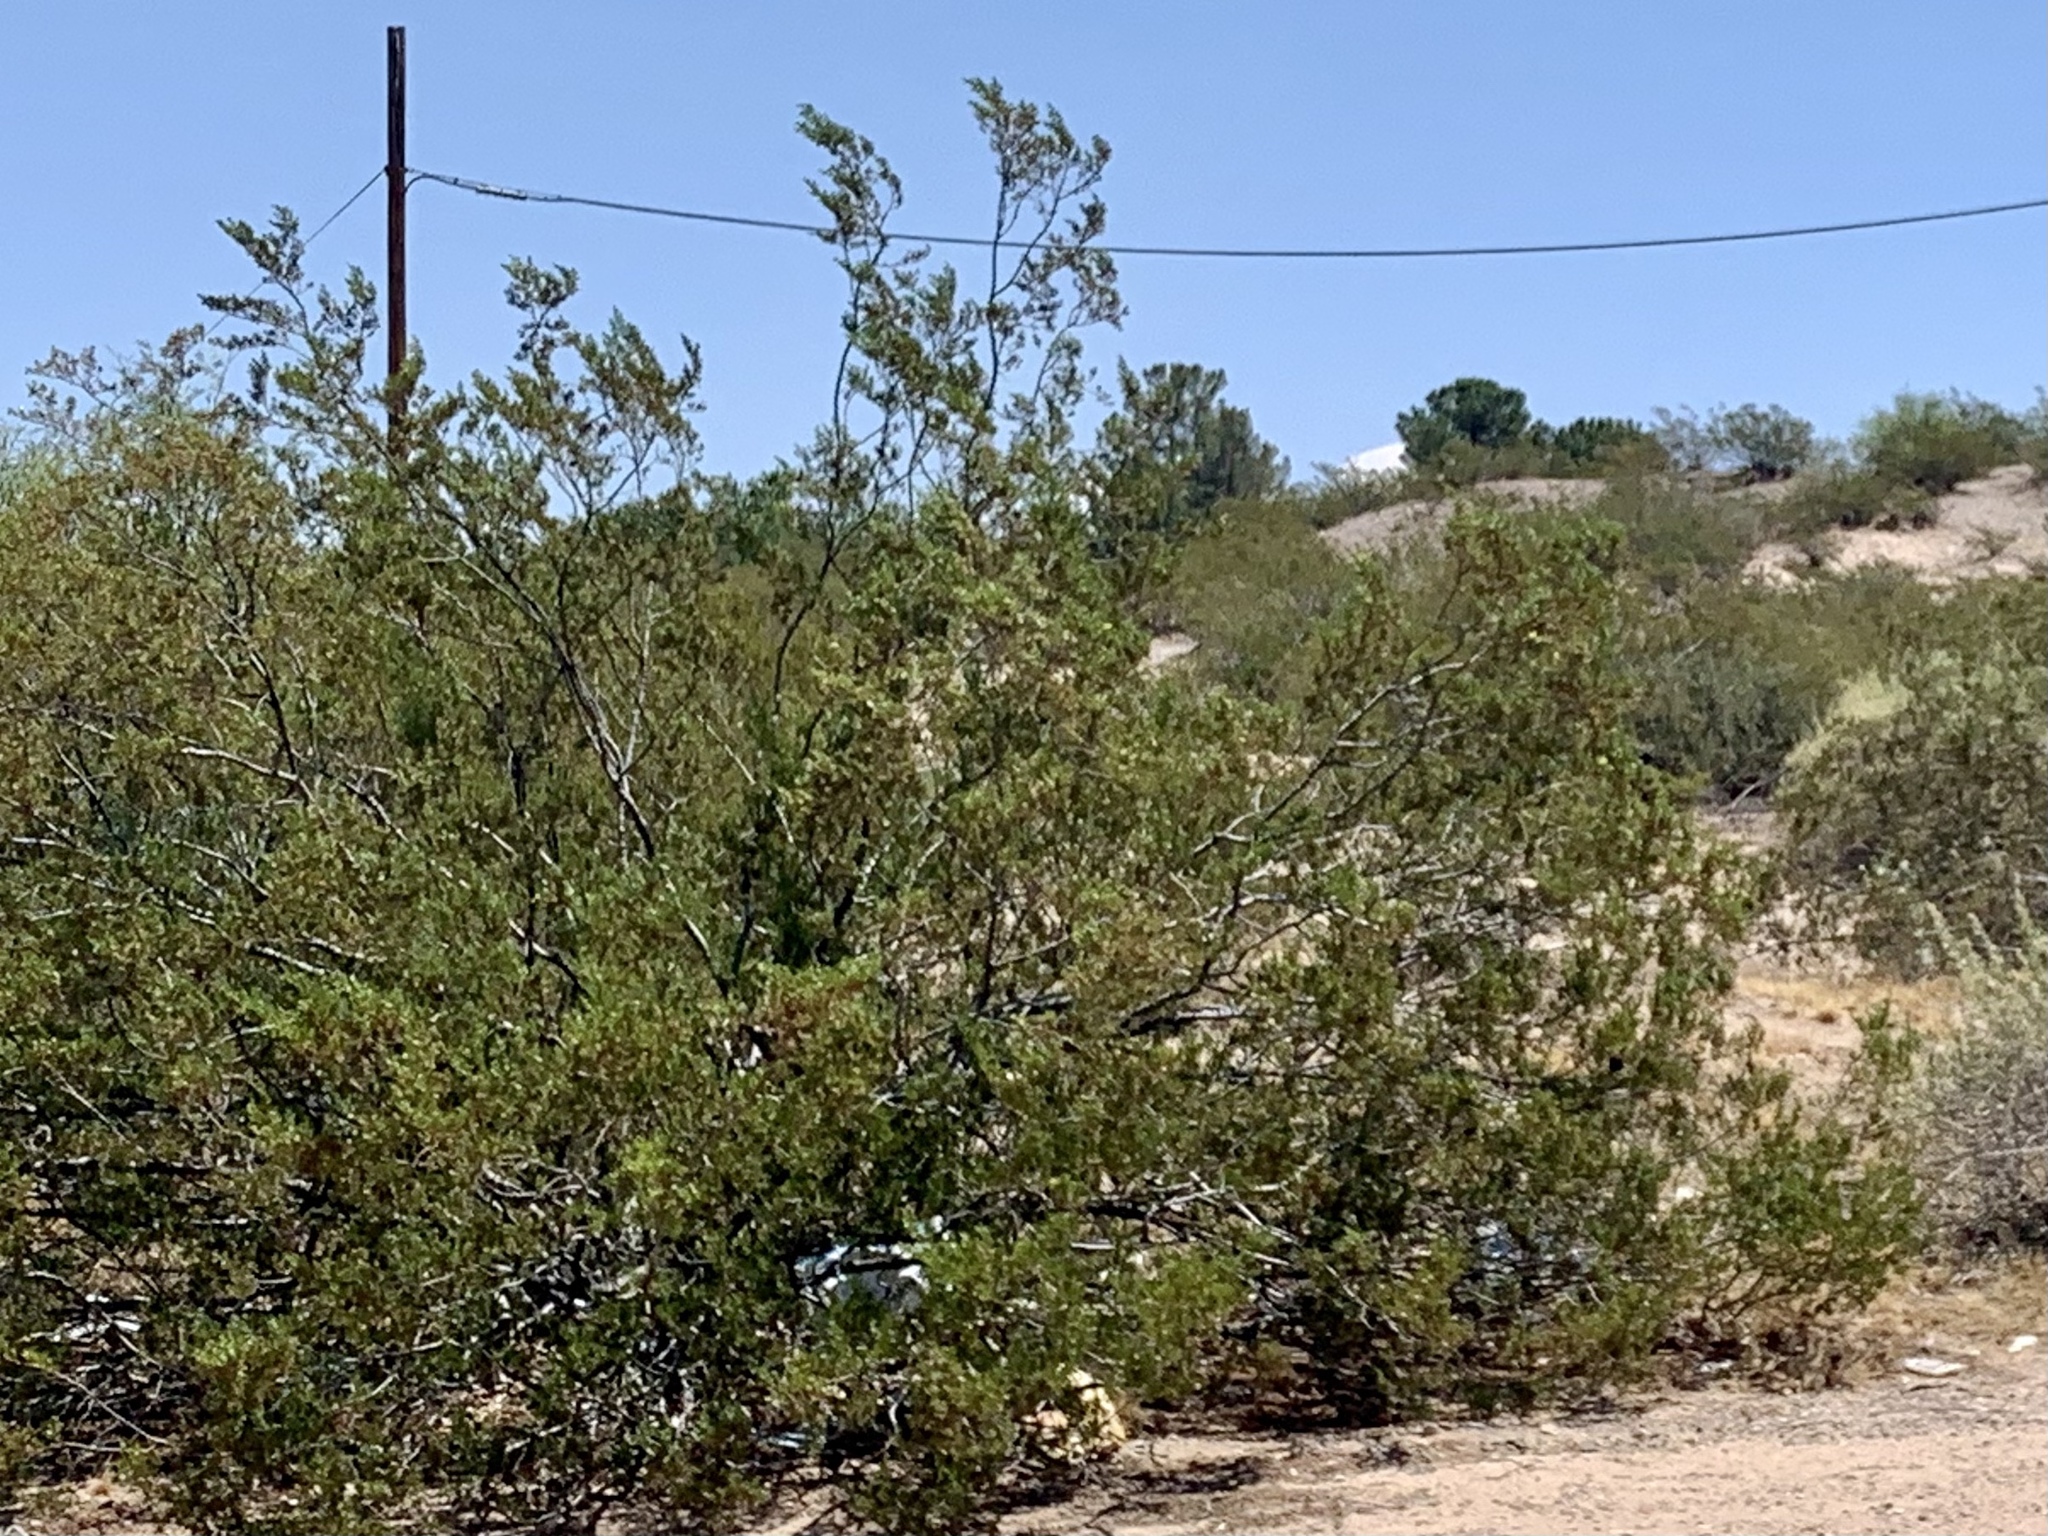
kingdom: Plantae
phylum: Tracheophyta
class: Magnoliopsida
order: Zygophyllales
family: Zygophyllaceae
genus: Larrea
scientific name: Larrea tridentata
